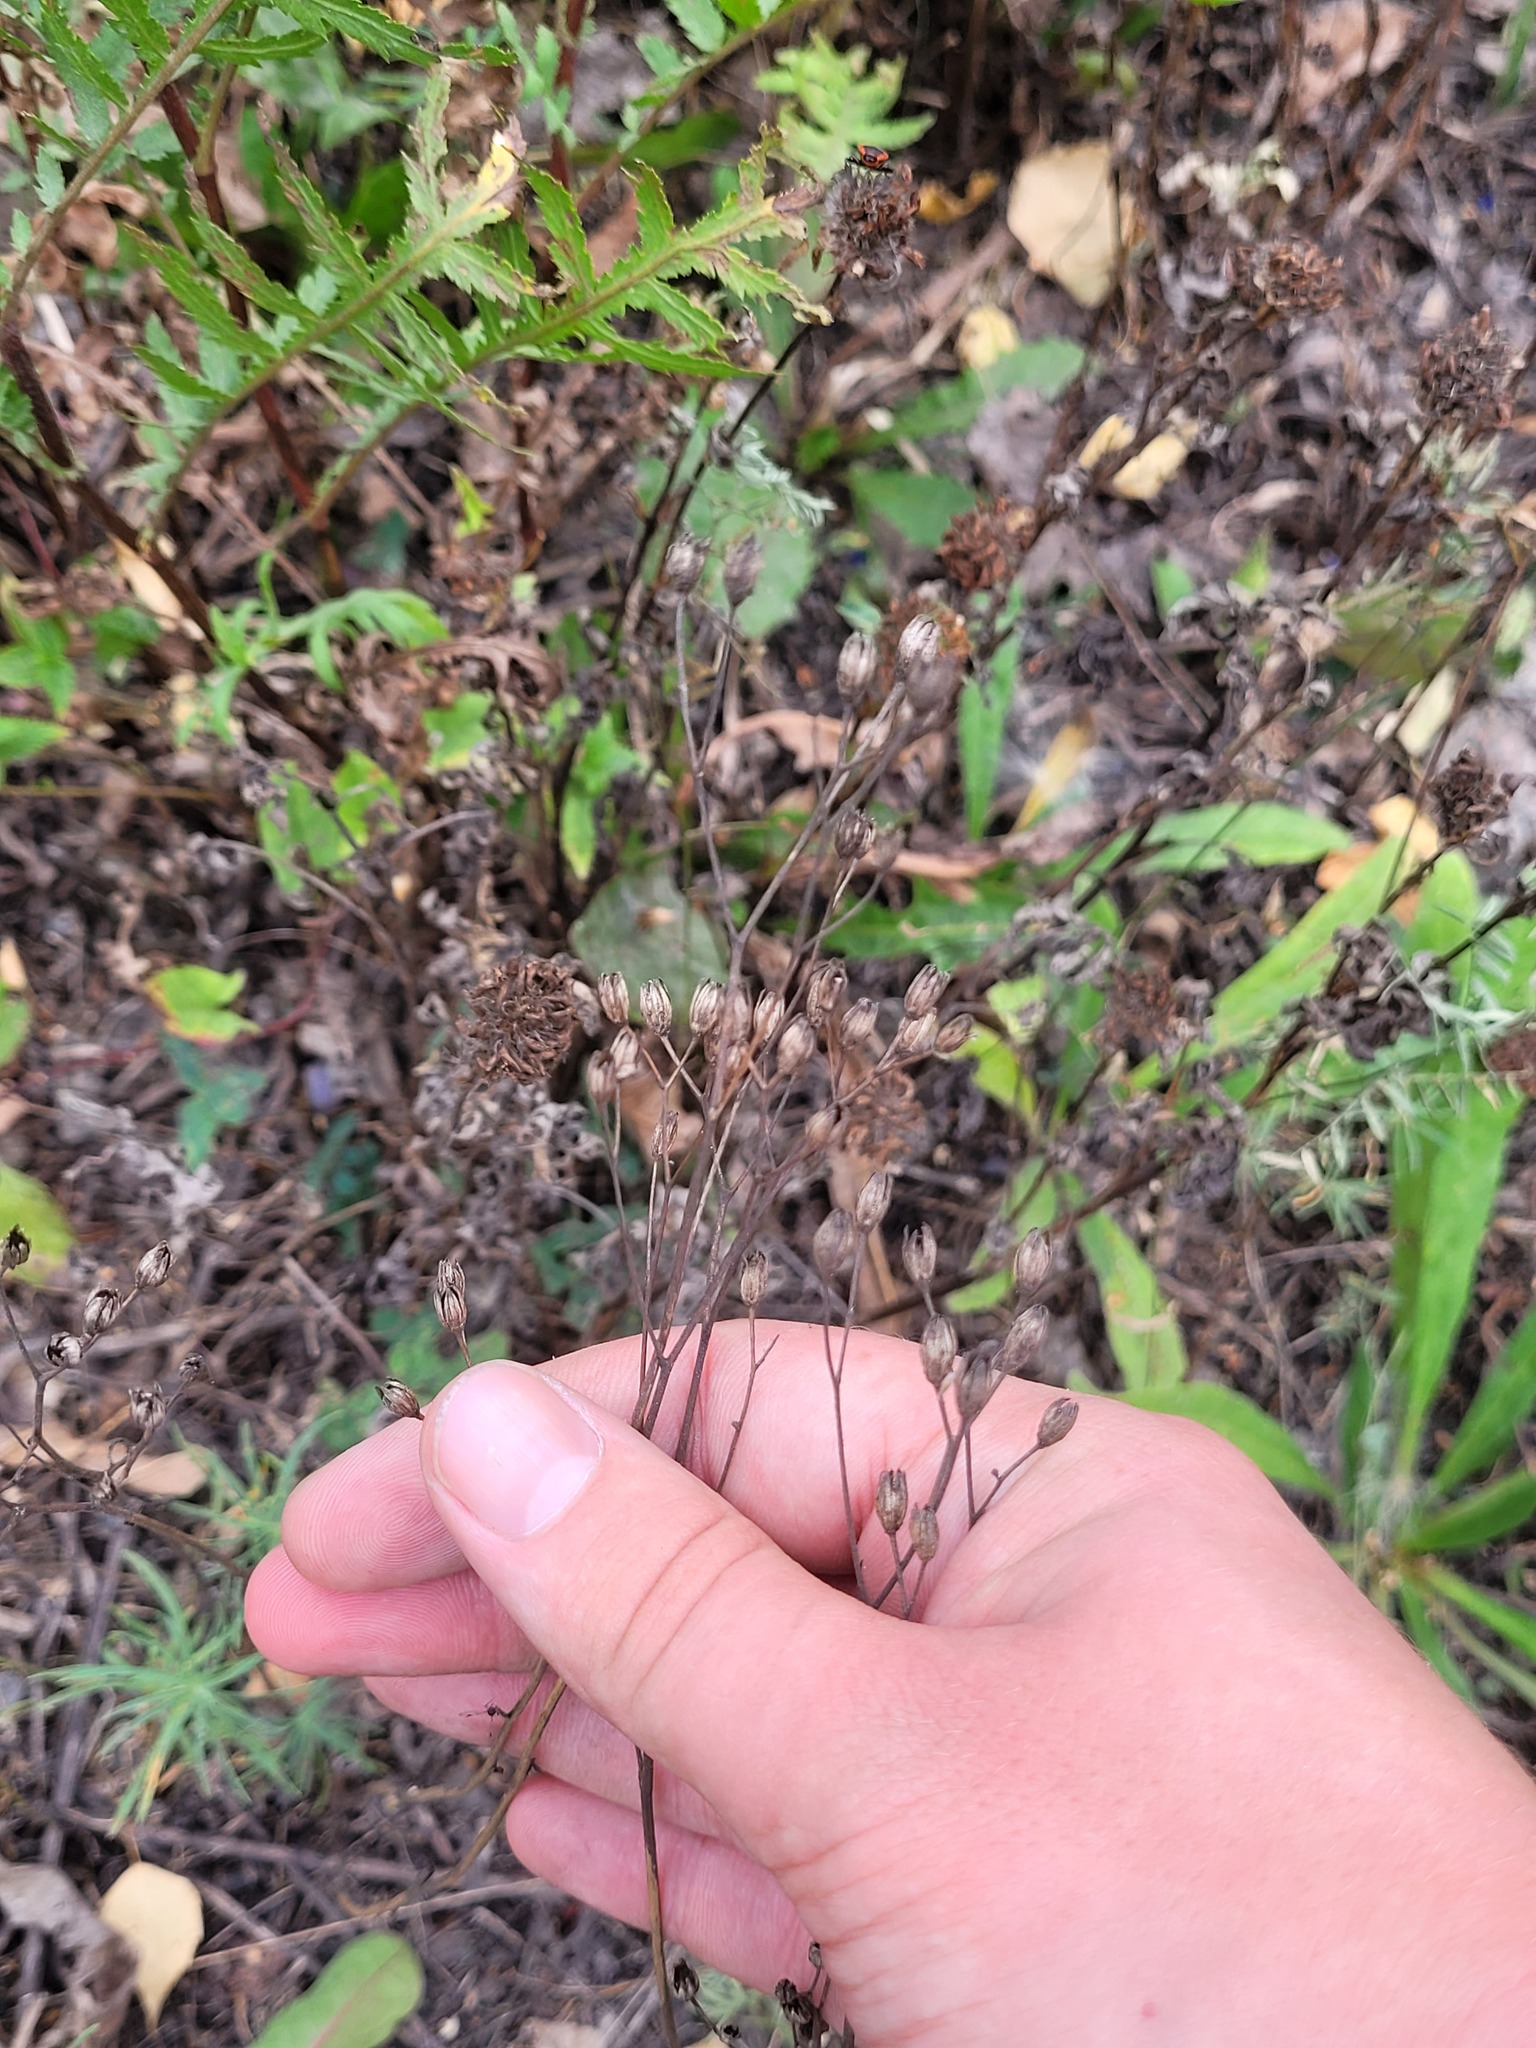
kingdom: Plantae
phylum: Tracheophyta
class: Magnoliopsida
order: Asterales
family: Asteraceae
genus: Lapsana
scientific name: Lapsana communis
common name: Nipplewort
